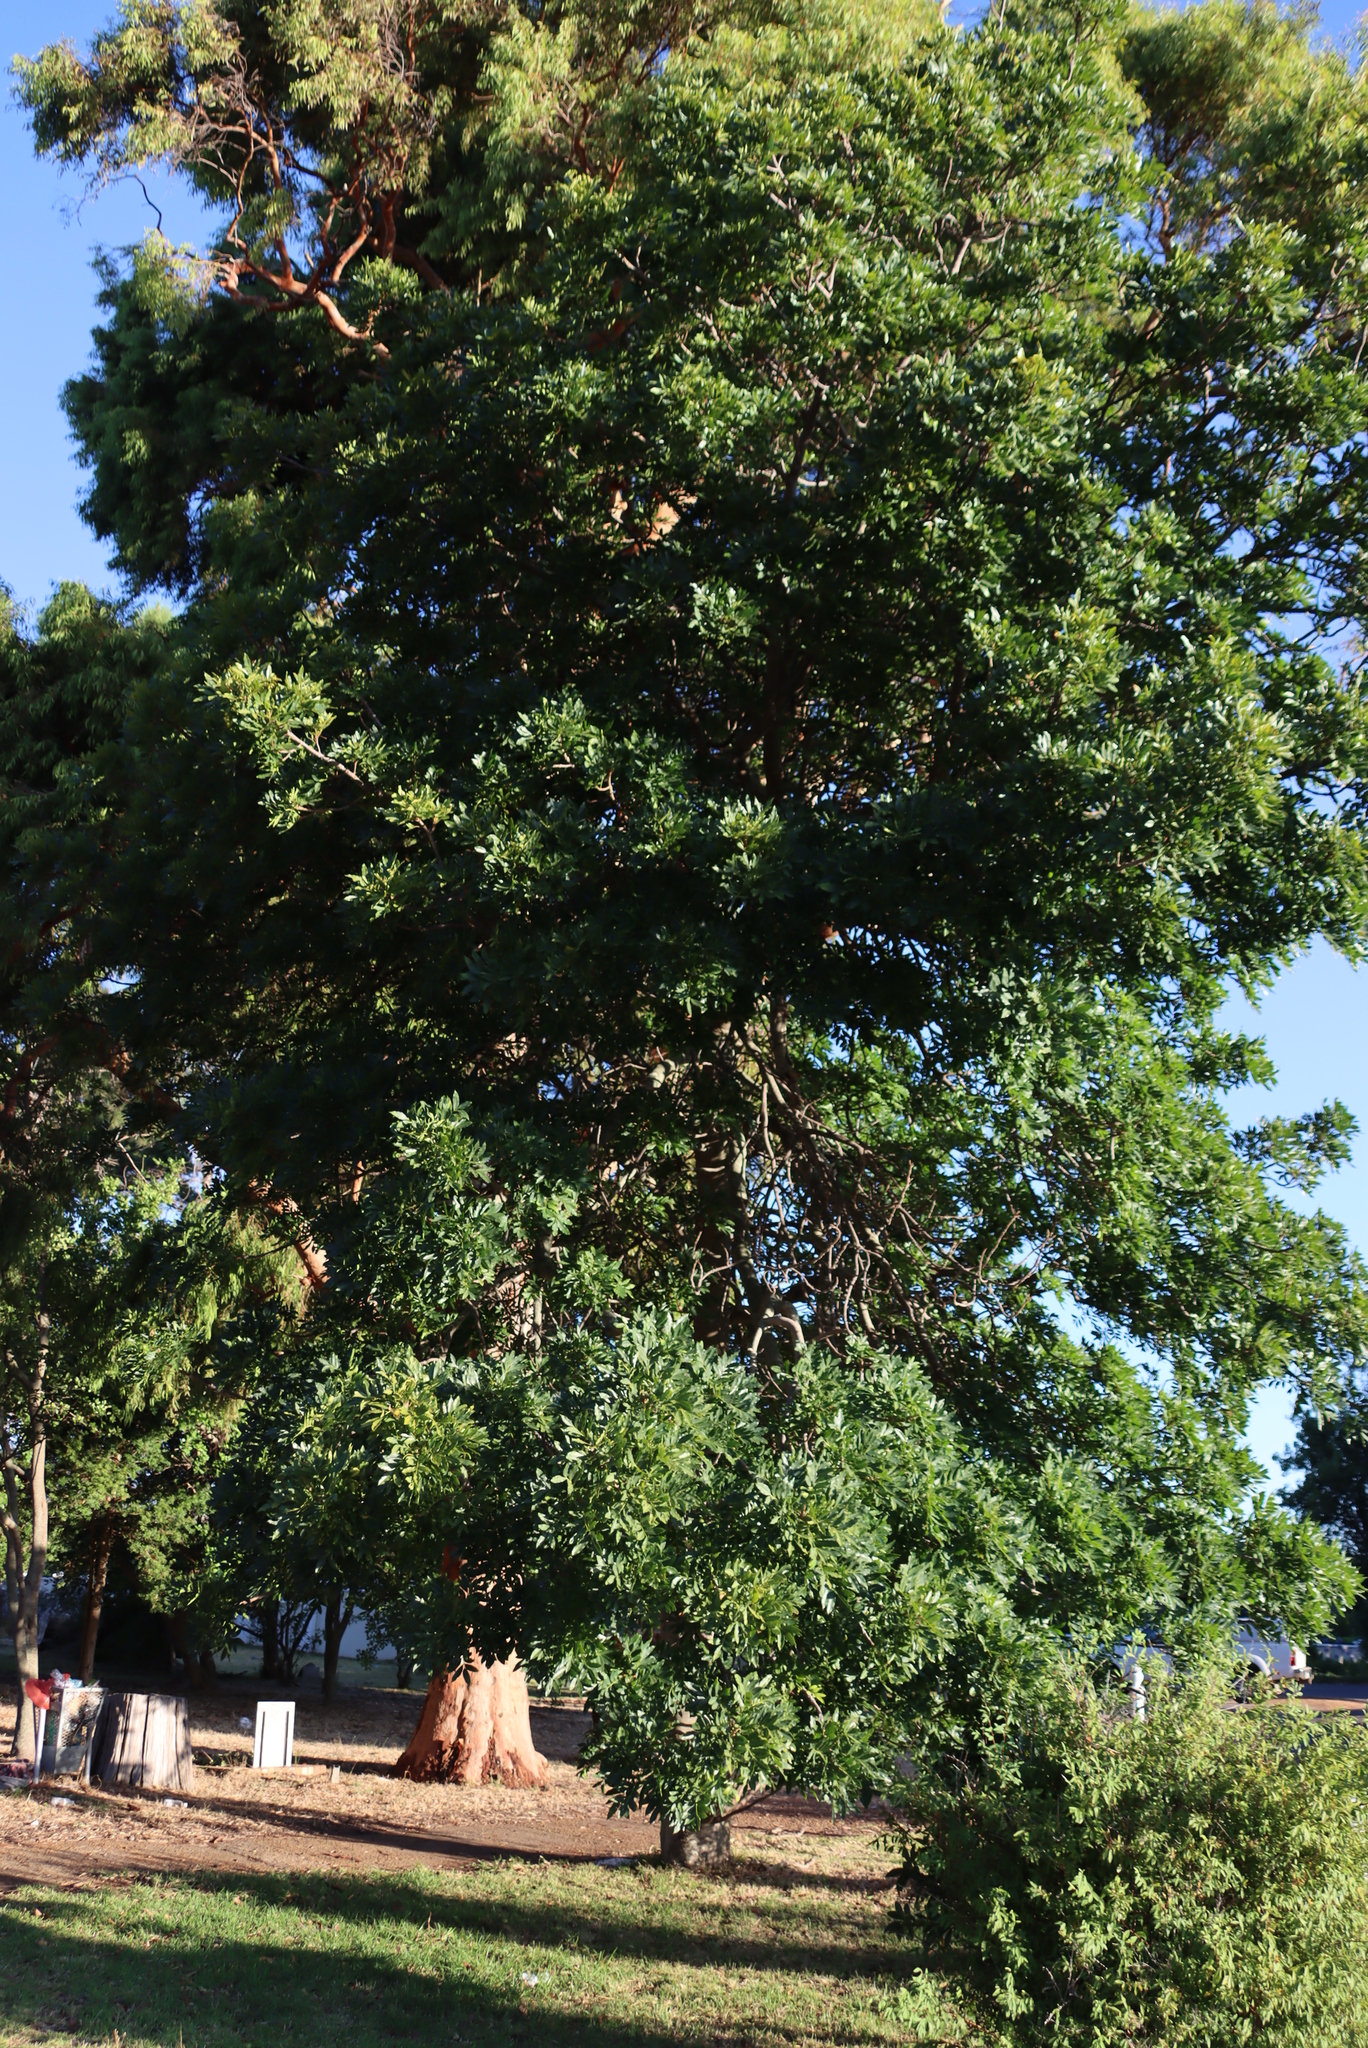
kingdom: Plantae
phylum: Tracheophyta
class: Magnoliopsida
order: Sapindales
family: Anacardiaceae
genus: Harpephyllum
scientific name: Harpephyllum caffrum
